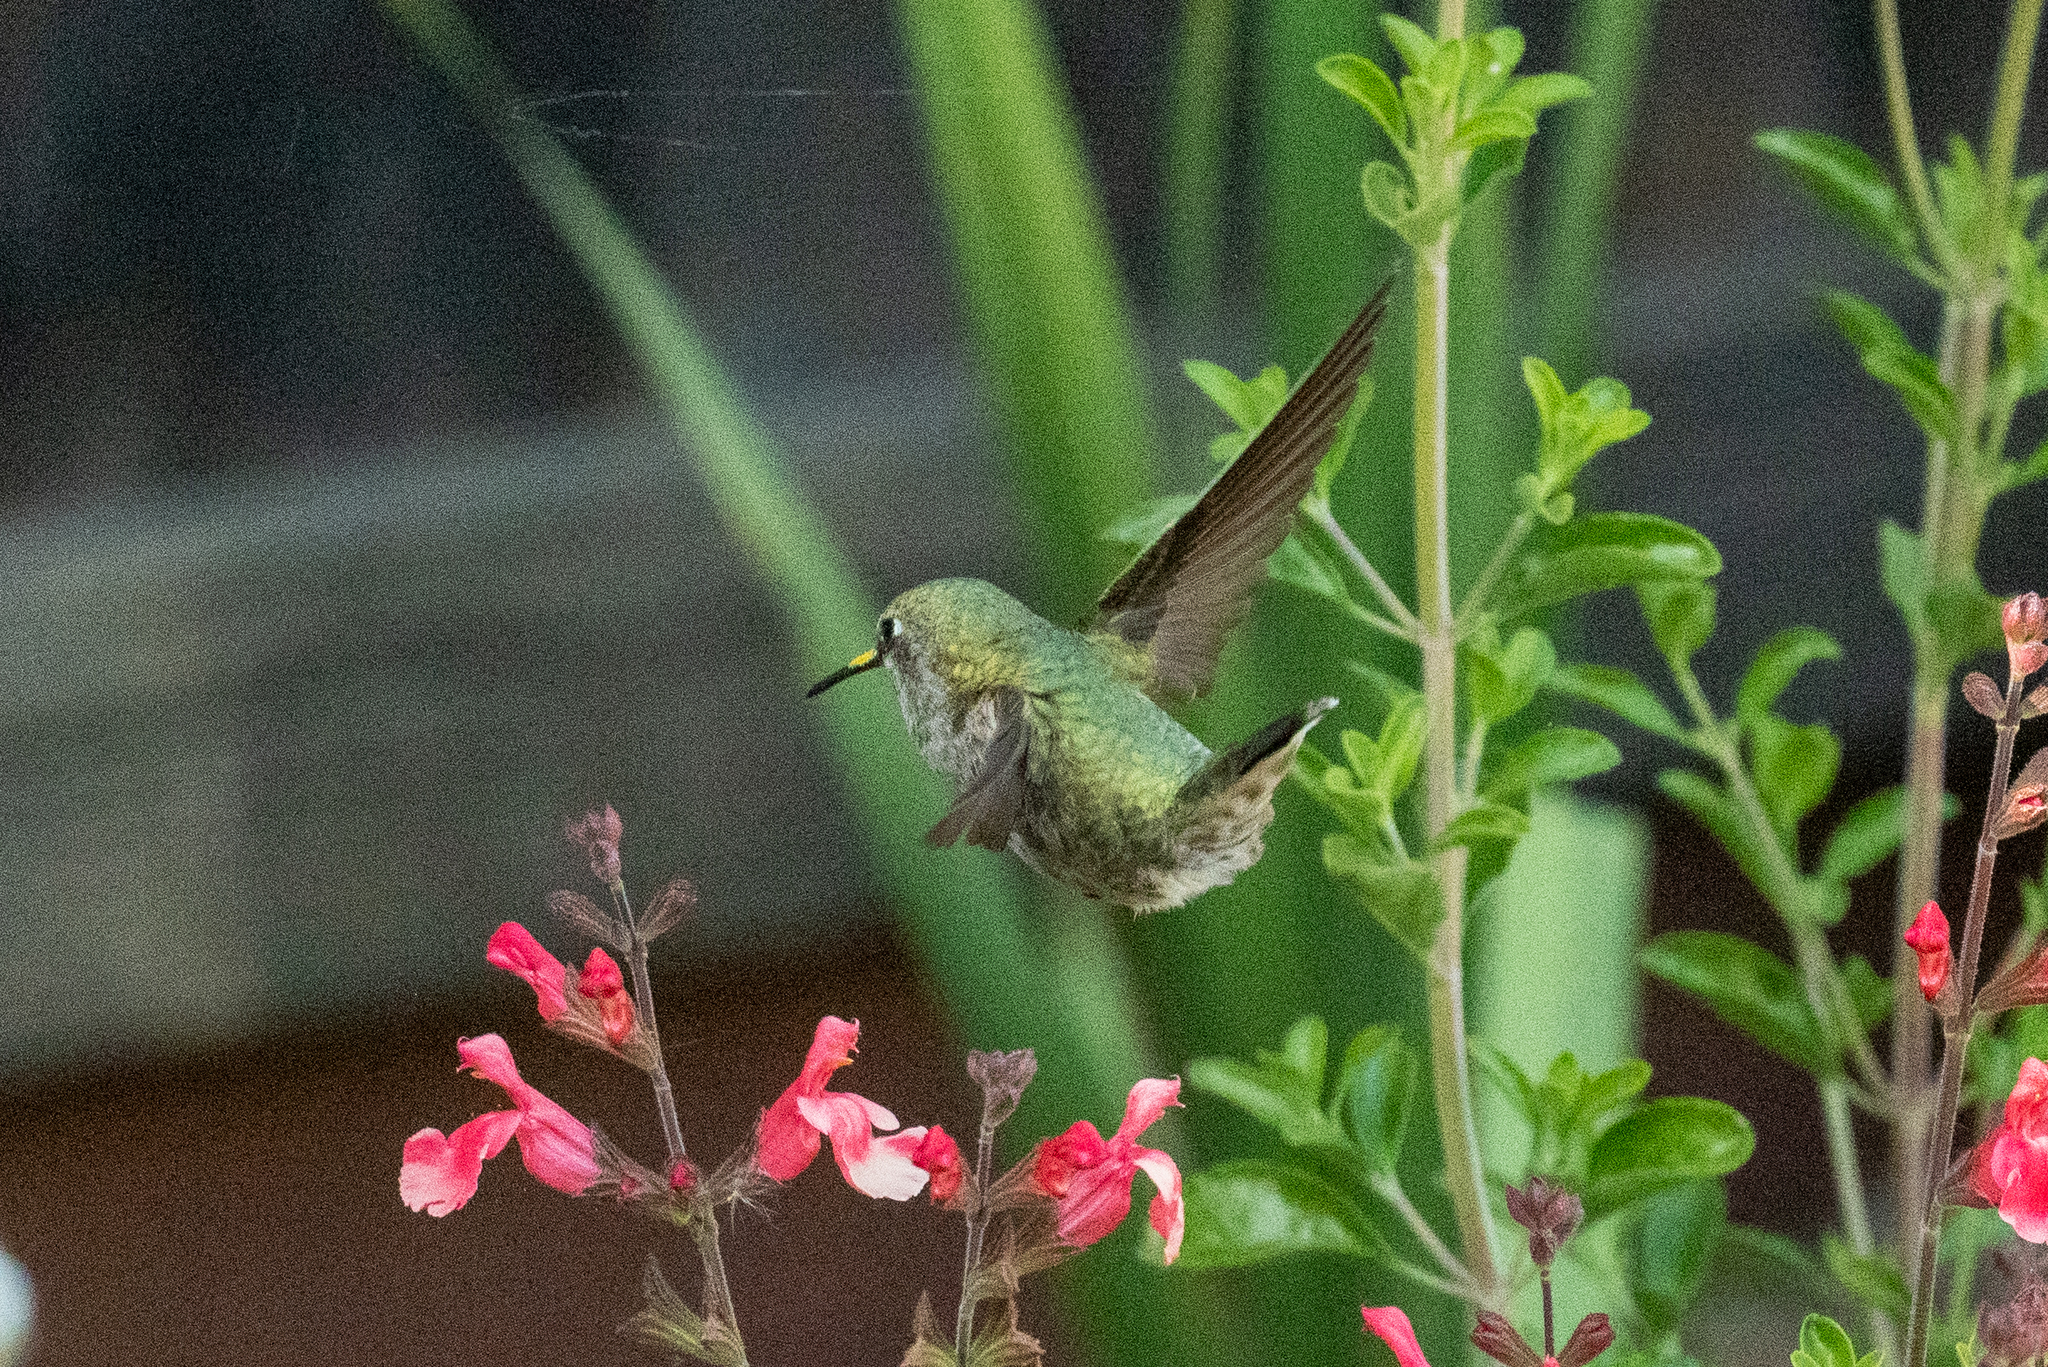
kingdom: Animalia
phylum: Chordata
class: Aves
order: Apodiformes
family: Trochilidae
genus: Calypte
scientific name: Calypte anna
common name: Anna's hummingbird
